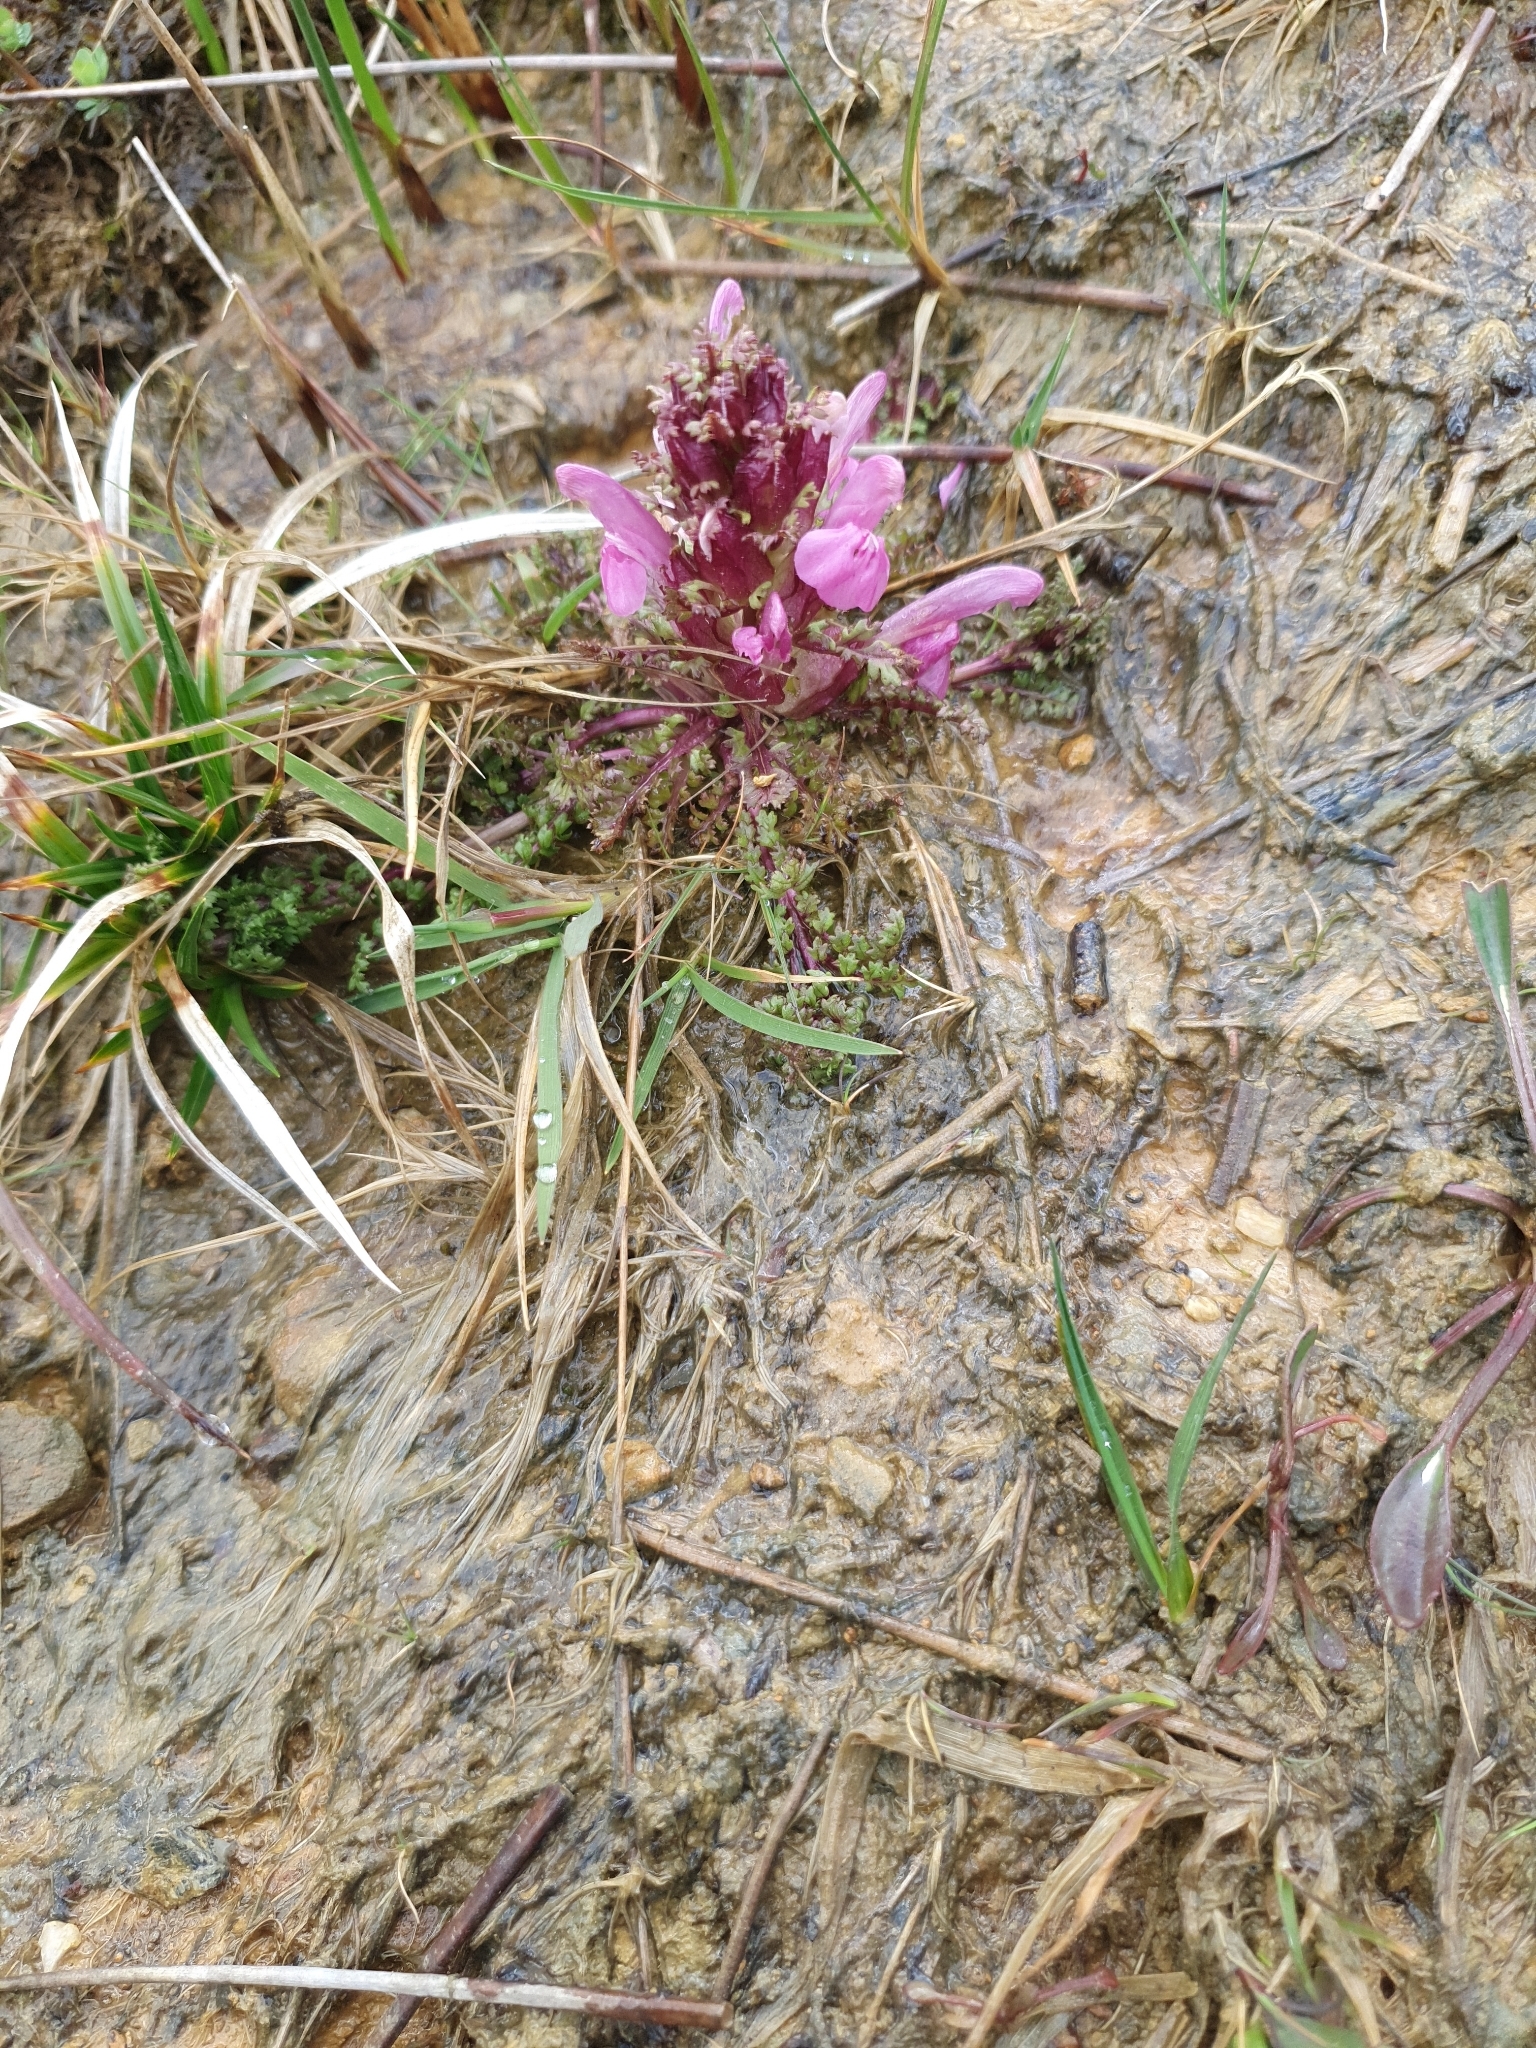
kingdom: Plantae
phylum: Tracheophyta
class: Magnoliopsida
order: Lamiales
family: Orobanchaceae
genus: Pedicularis
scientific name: Pedicularis sylvatica
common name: Lousewort
